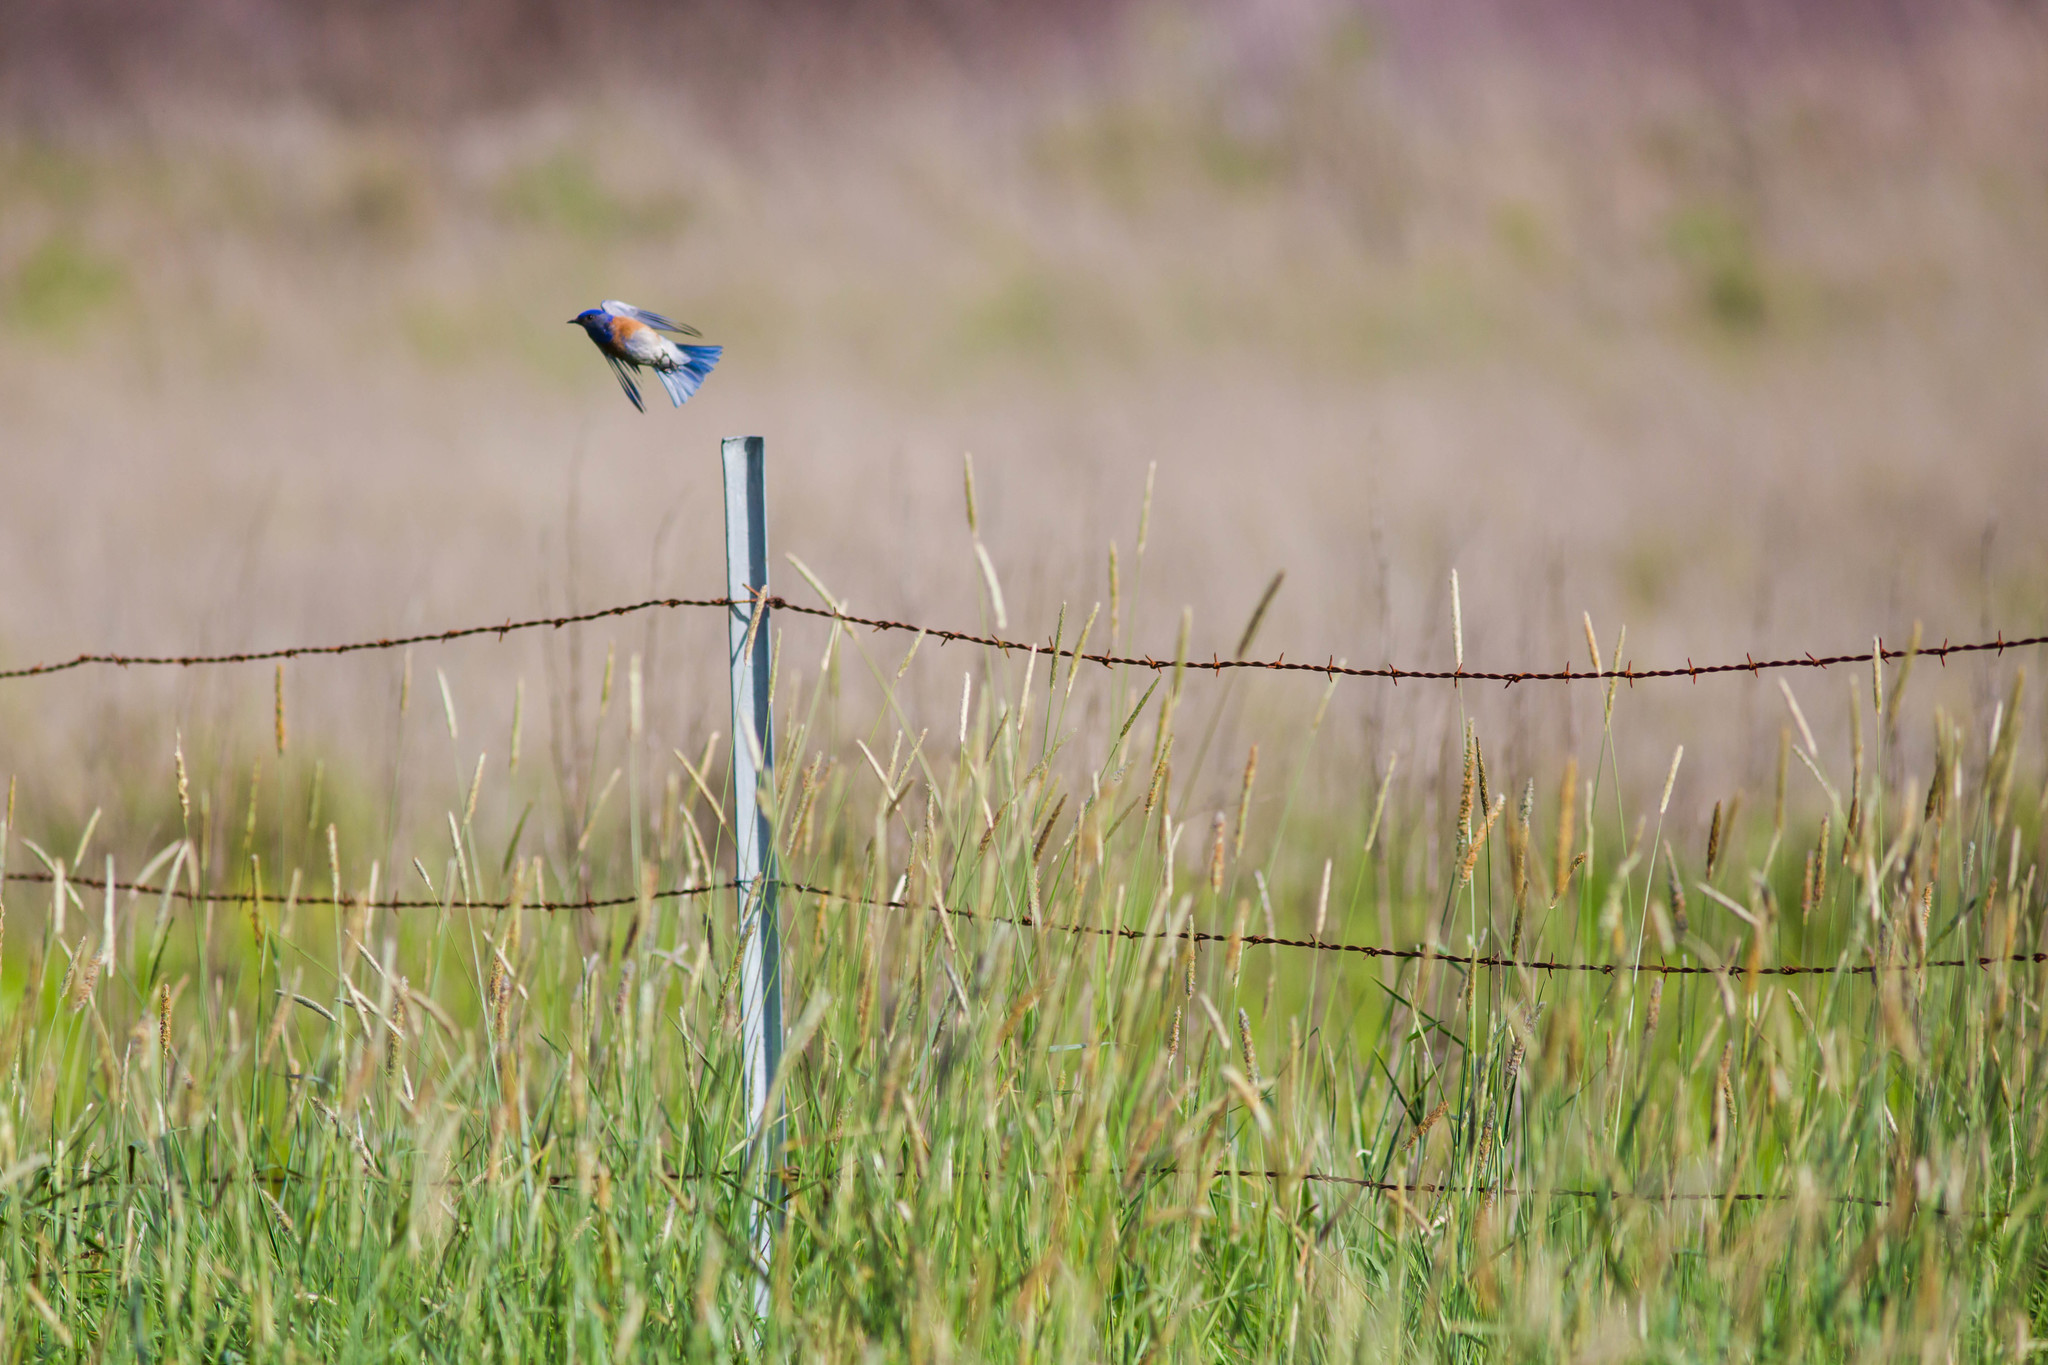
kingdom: Animalia
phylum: Chordata
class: Aves
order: Passeriformes
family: Turdidae
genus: Sialia
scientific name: Sialia mexicana
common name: Western bluebird
